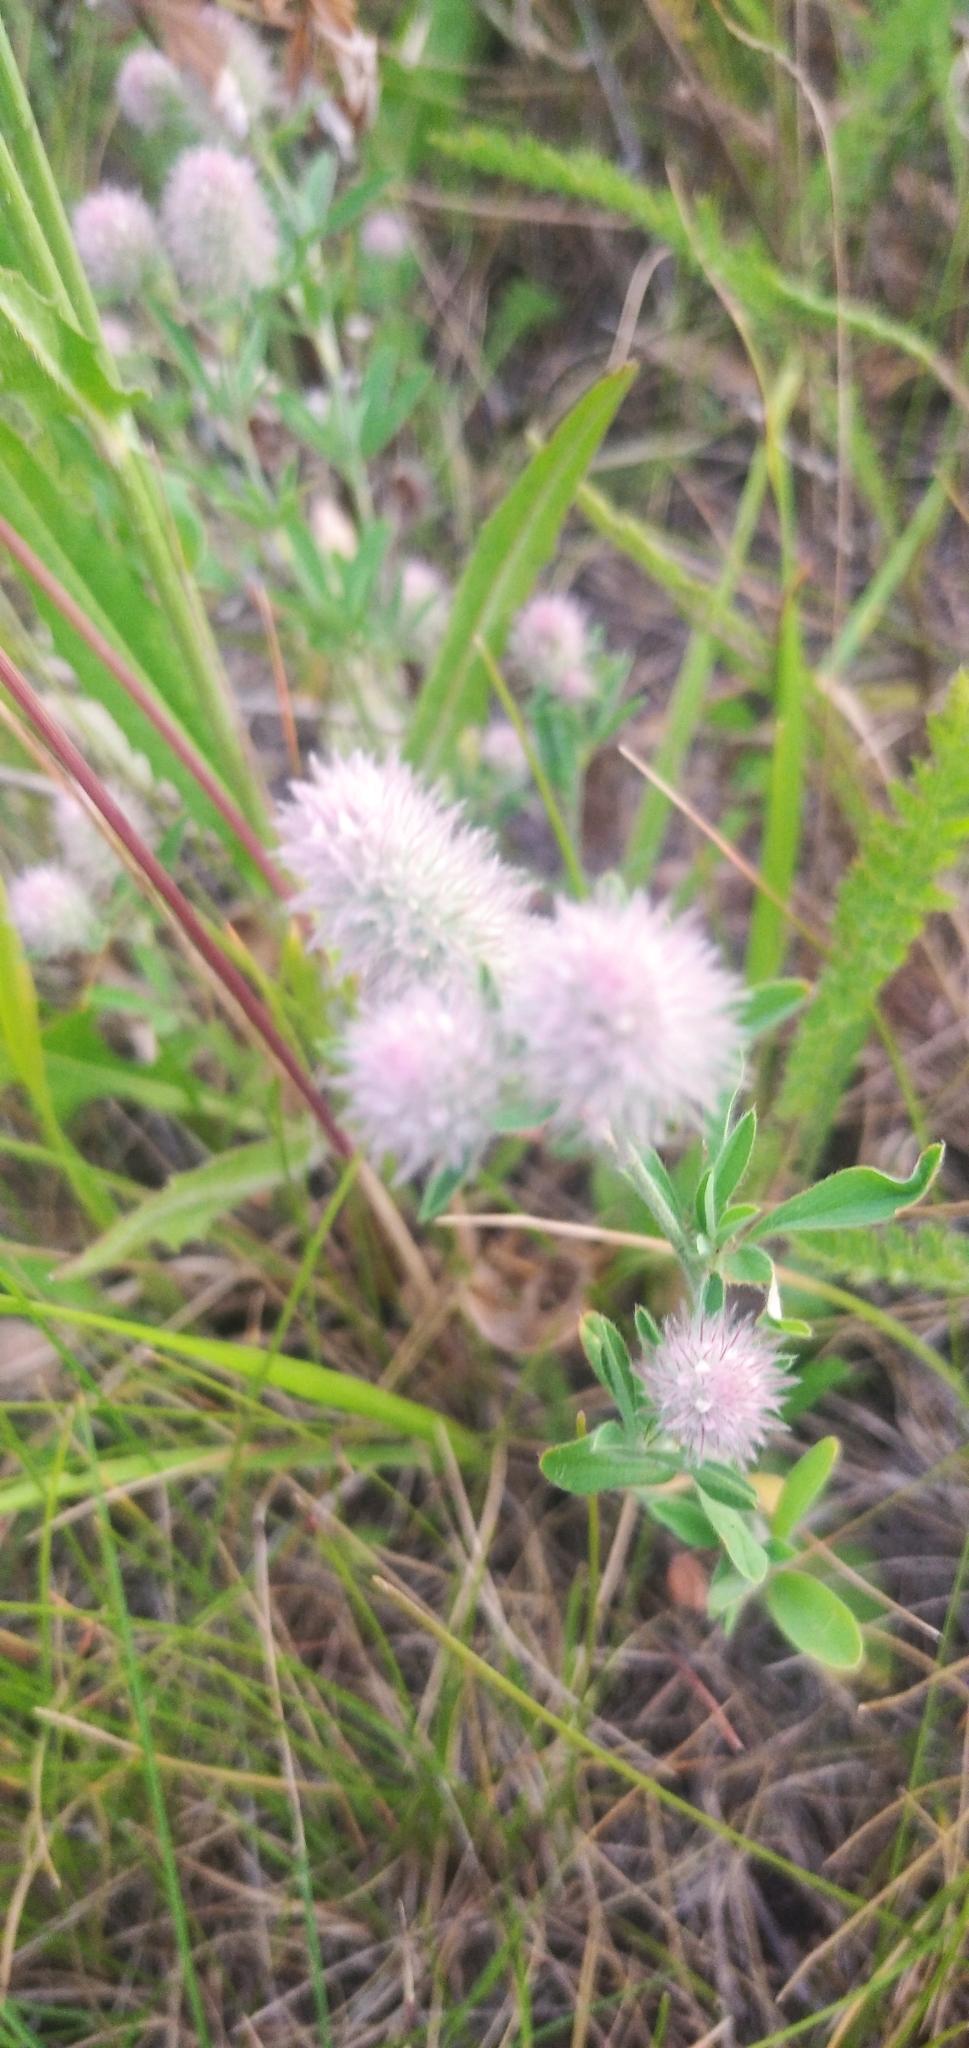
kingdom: Plantae
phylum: Tracheophyta
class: Magnoliopsida
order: Fabales
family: Fabaceae
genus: Trifolium
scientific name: Trifolium arvense
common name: Hare's-foot clover
